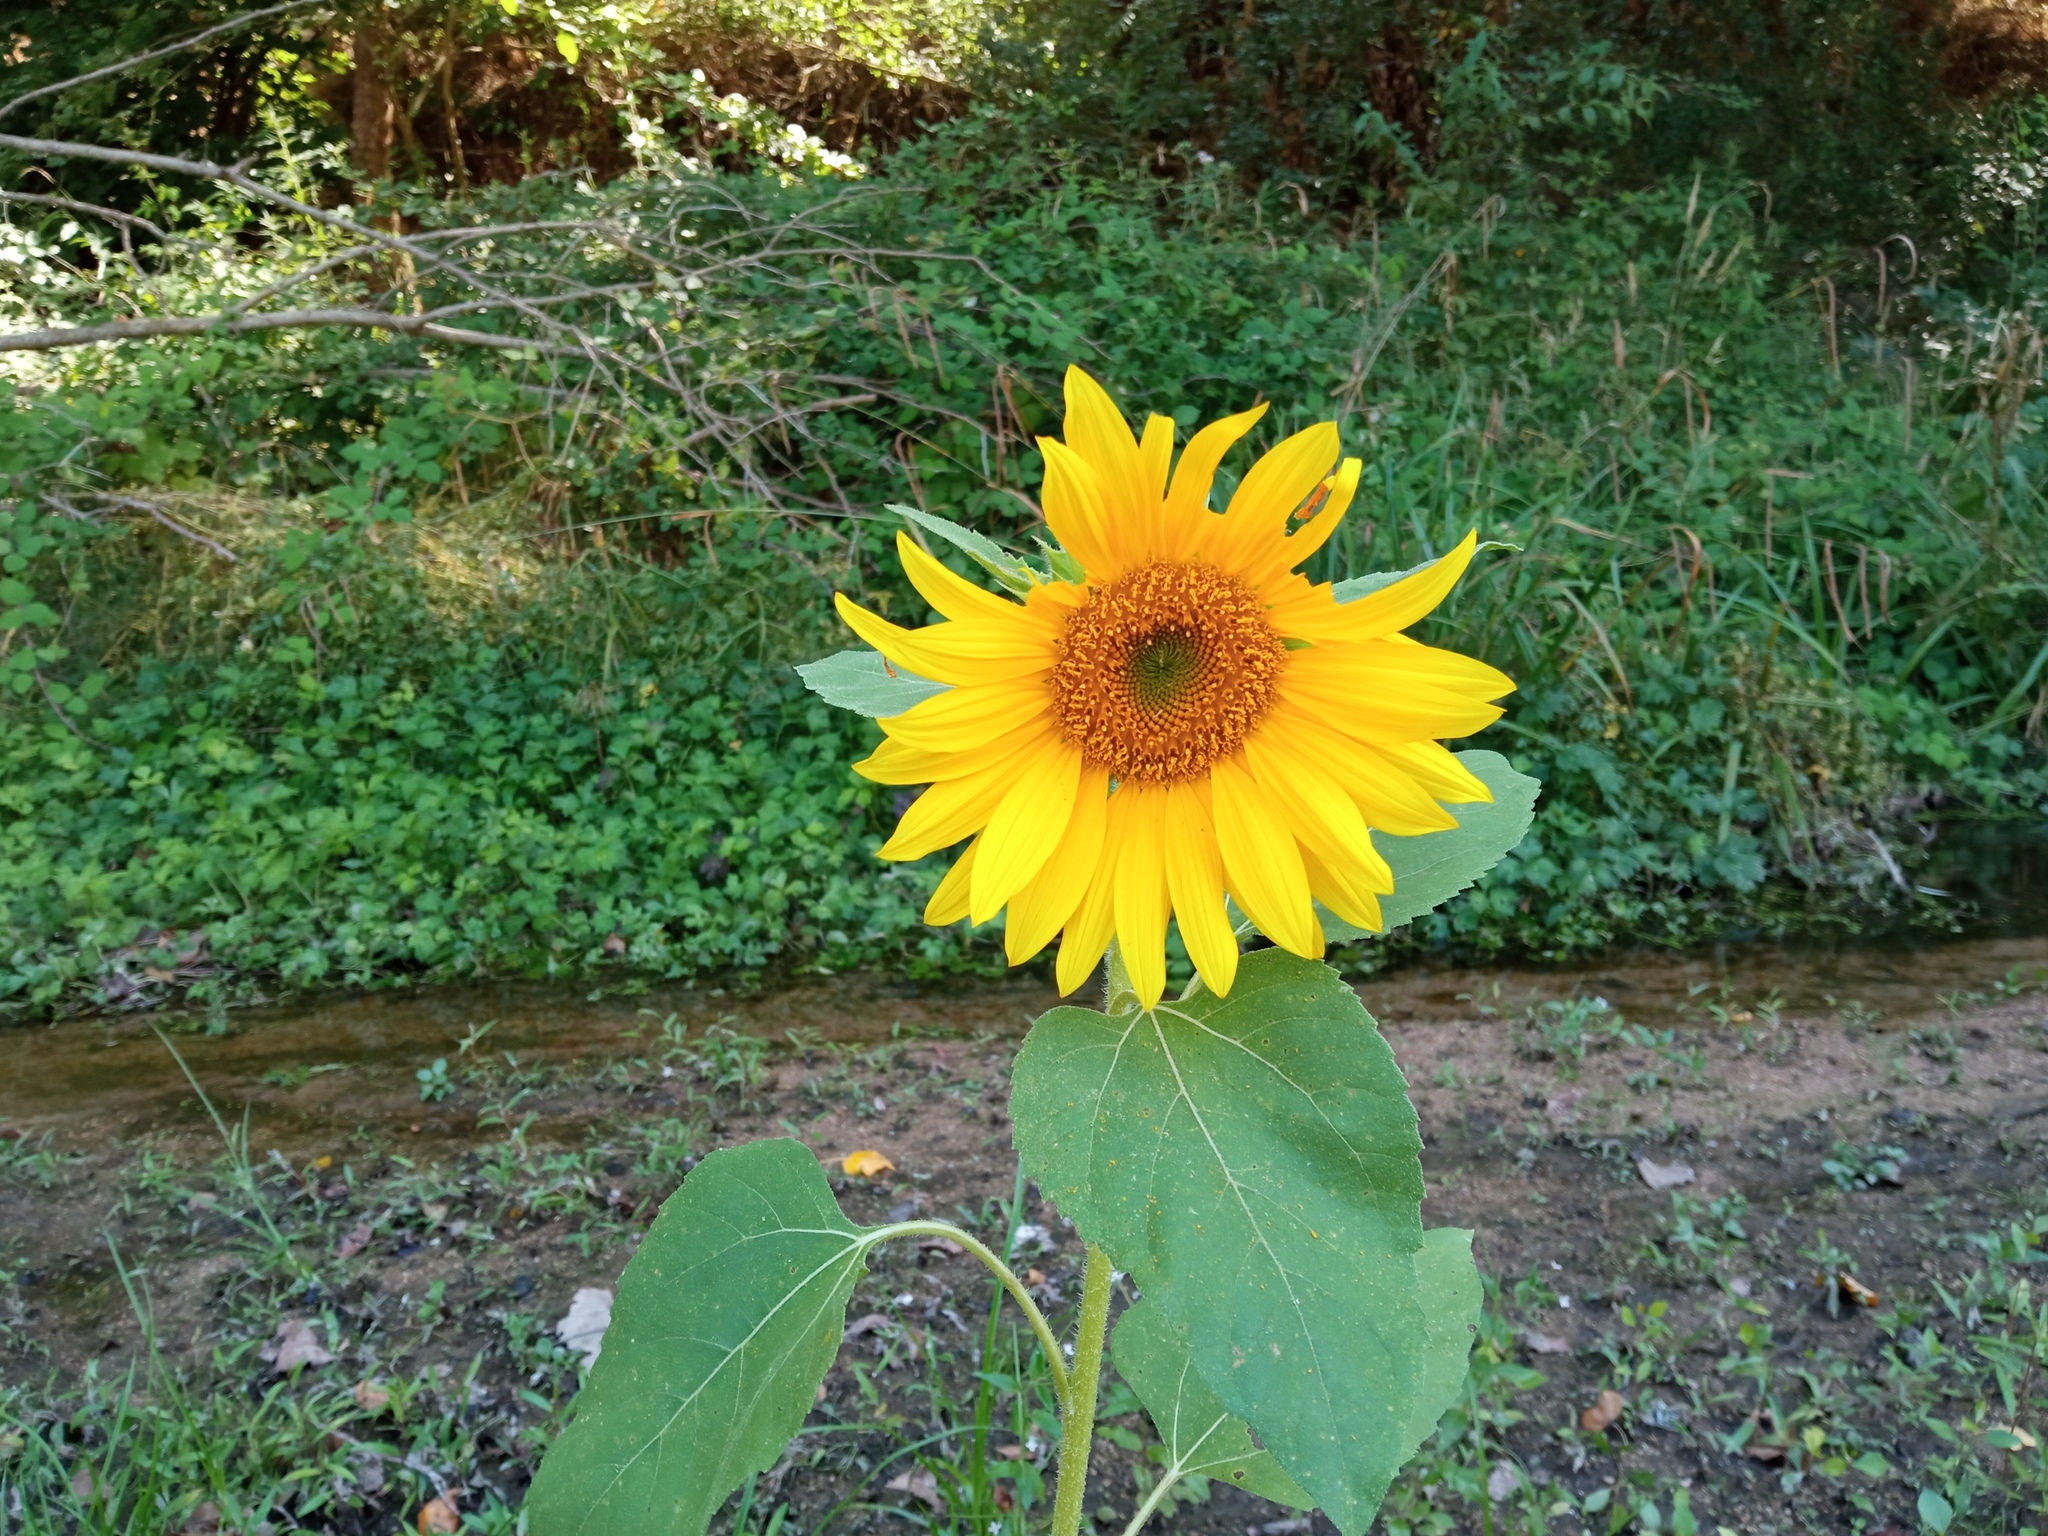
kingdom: Plantae
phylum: Tracheophyta
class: Magnoliopsida
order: Asterales
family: Asteraceae
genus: Helianthus
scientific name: Helianthus annuus
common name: Sunflower
